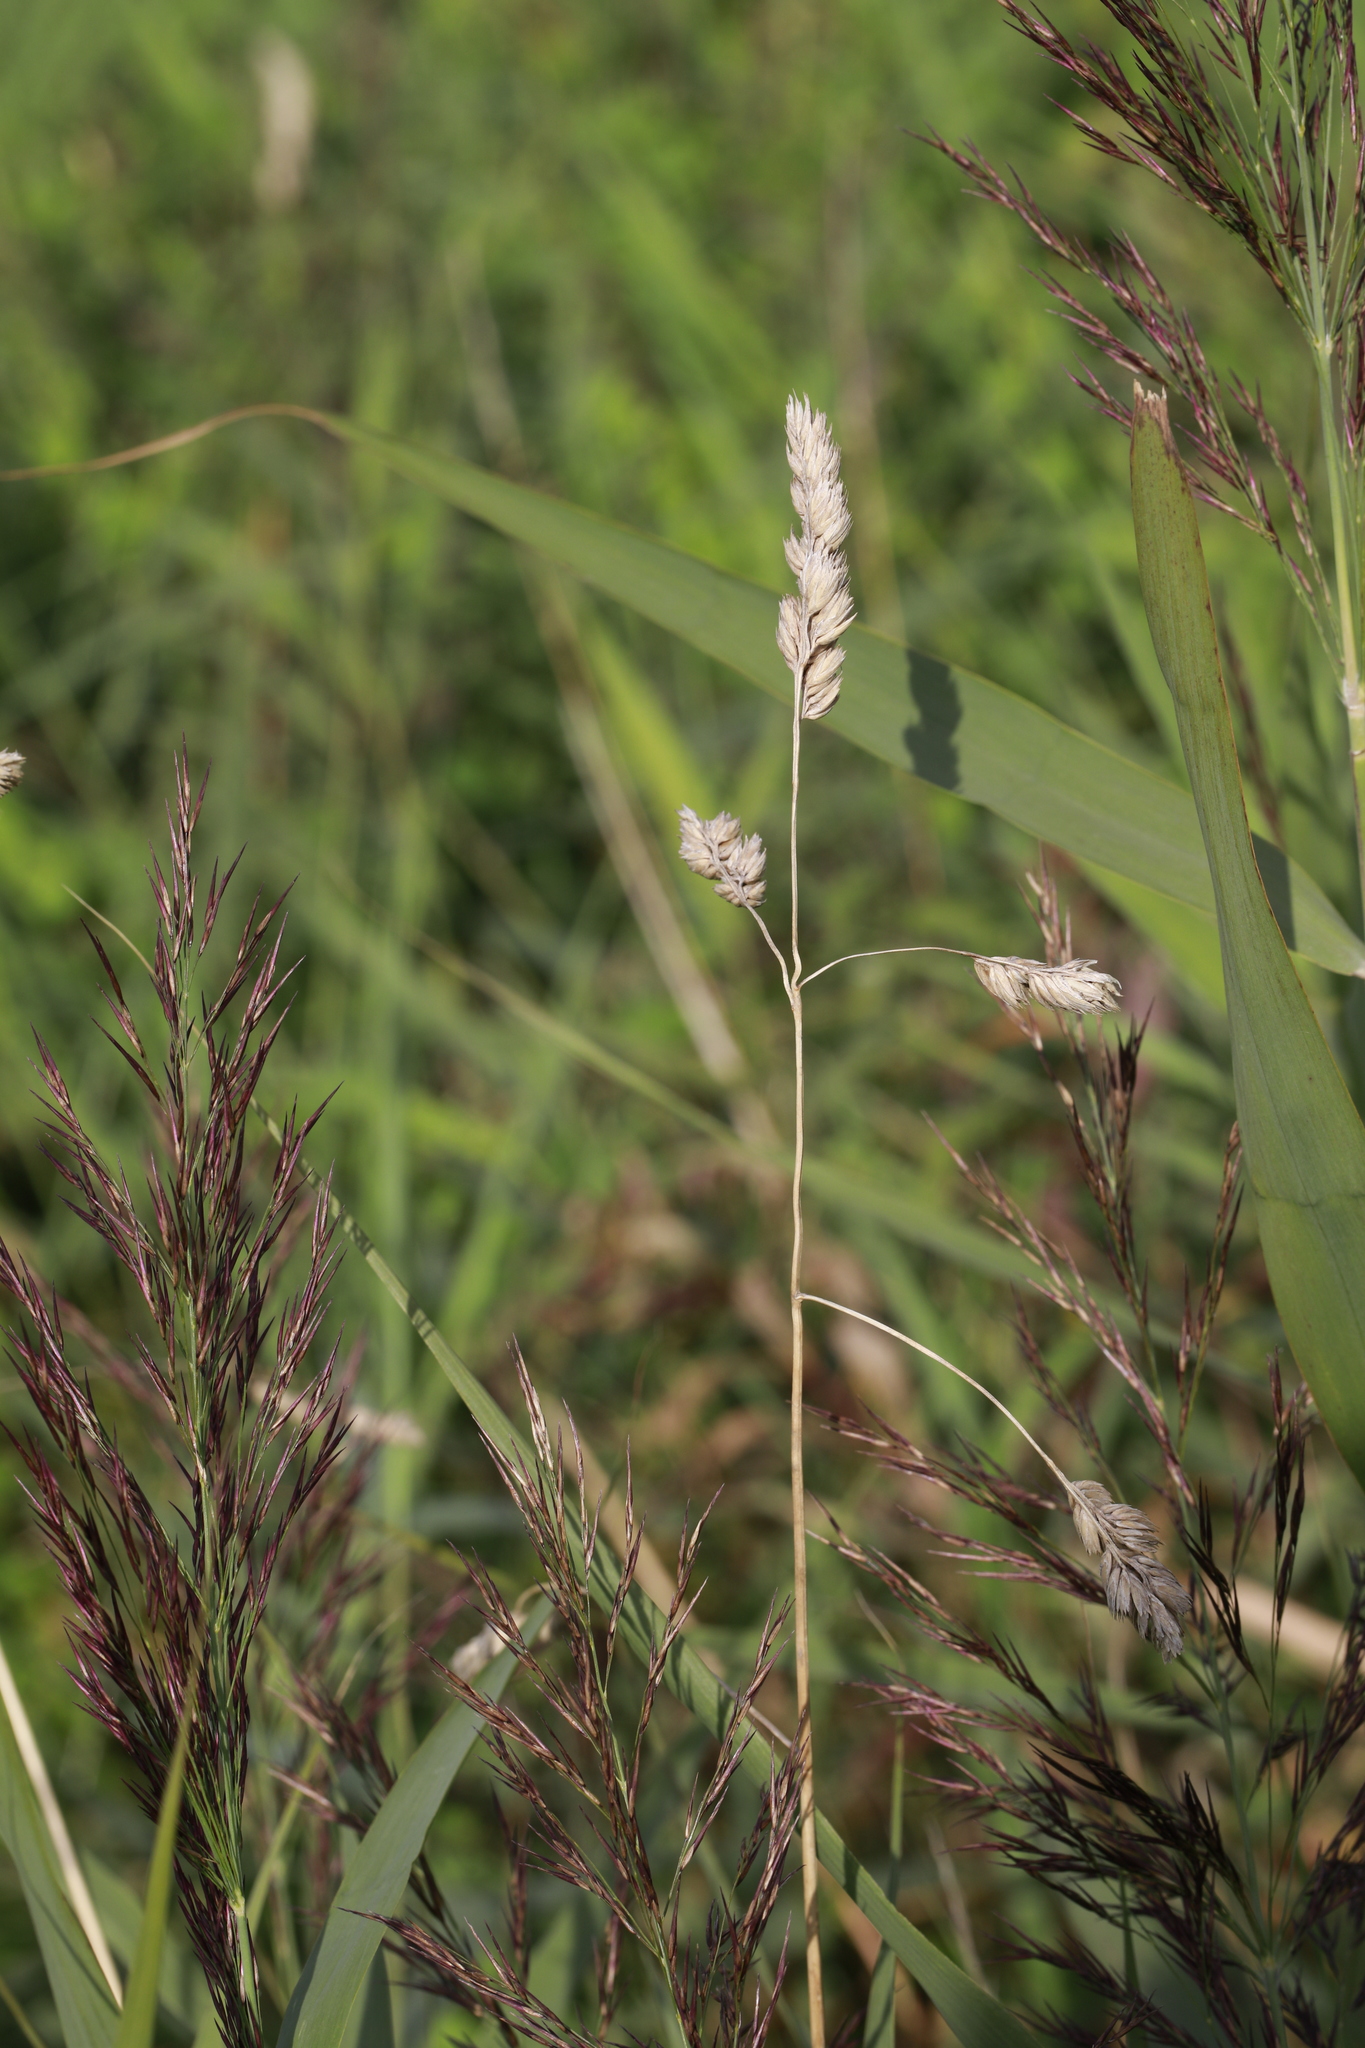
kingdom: Plantae
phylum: Tracheophyta
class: Liliopsida
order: Poales
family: Poaceae
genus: Dactylis
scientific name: Dactylis glomerata
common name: Orchardgrass
